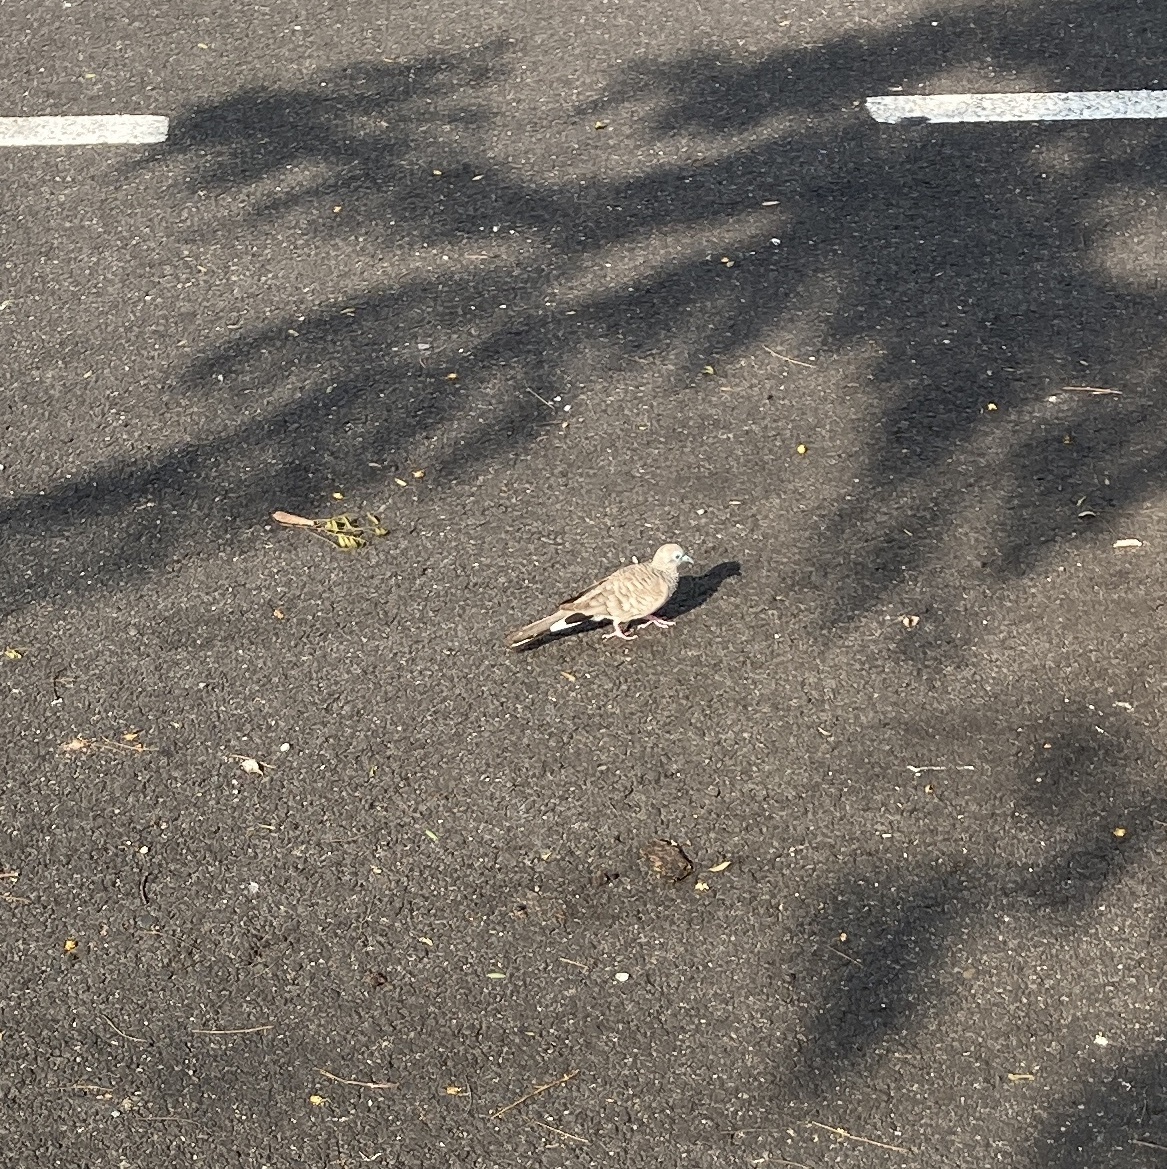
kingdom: Animalia
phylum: Chordata
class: Aves
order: Columbiformes
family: Columbidae
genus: Geopelia
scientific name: Geopelia placida
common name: Peaceful dove
